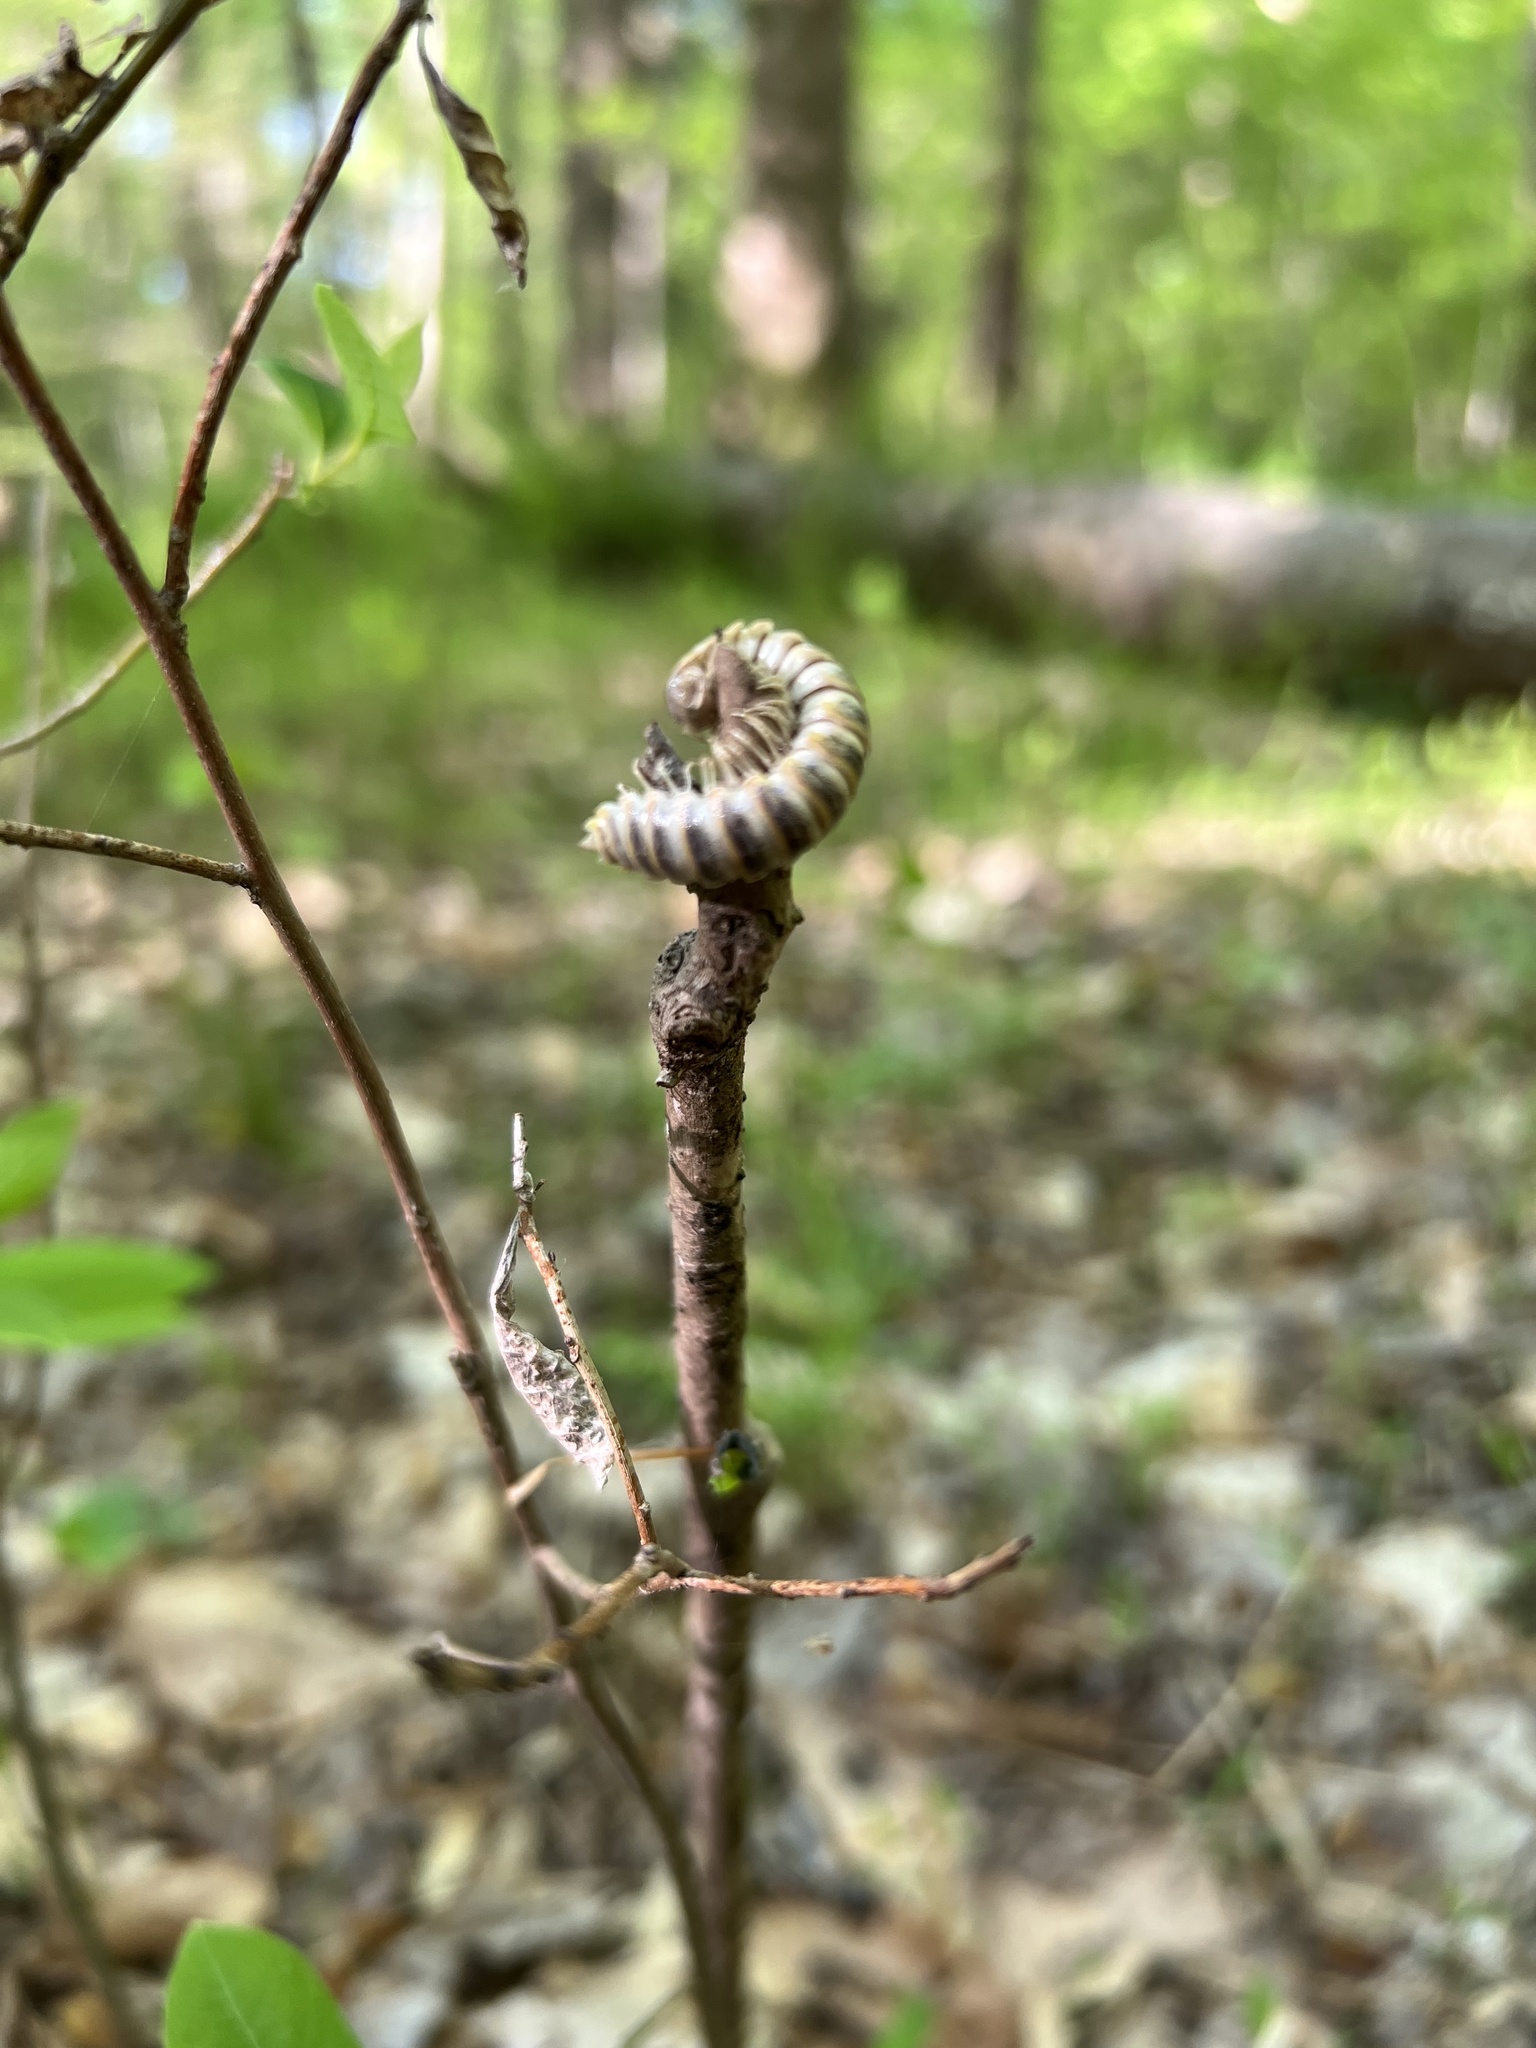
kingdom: Fungi
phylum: Entomophthoromycota
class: Entomophthoromycetes
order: Entomophthorales
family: Entomophthoraceae
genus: Arthrophaga
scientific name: Arthrophaga myriapodina
